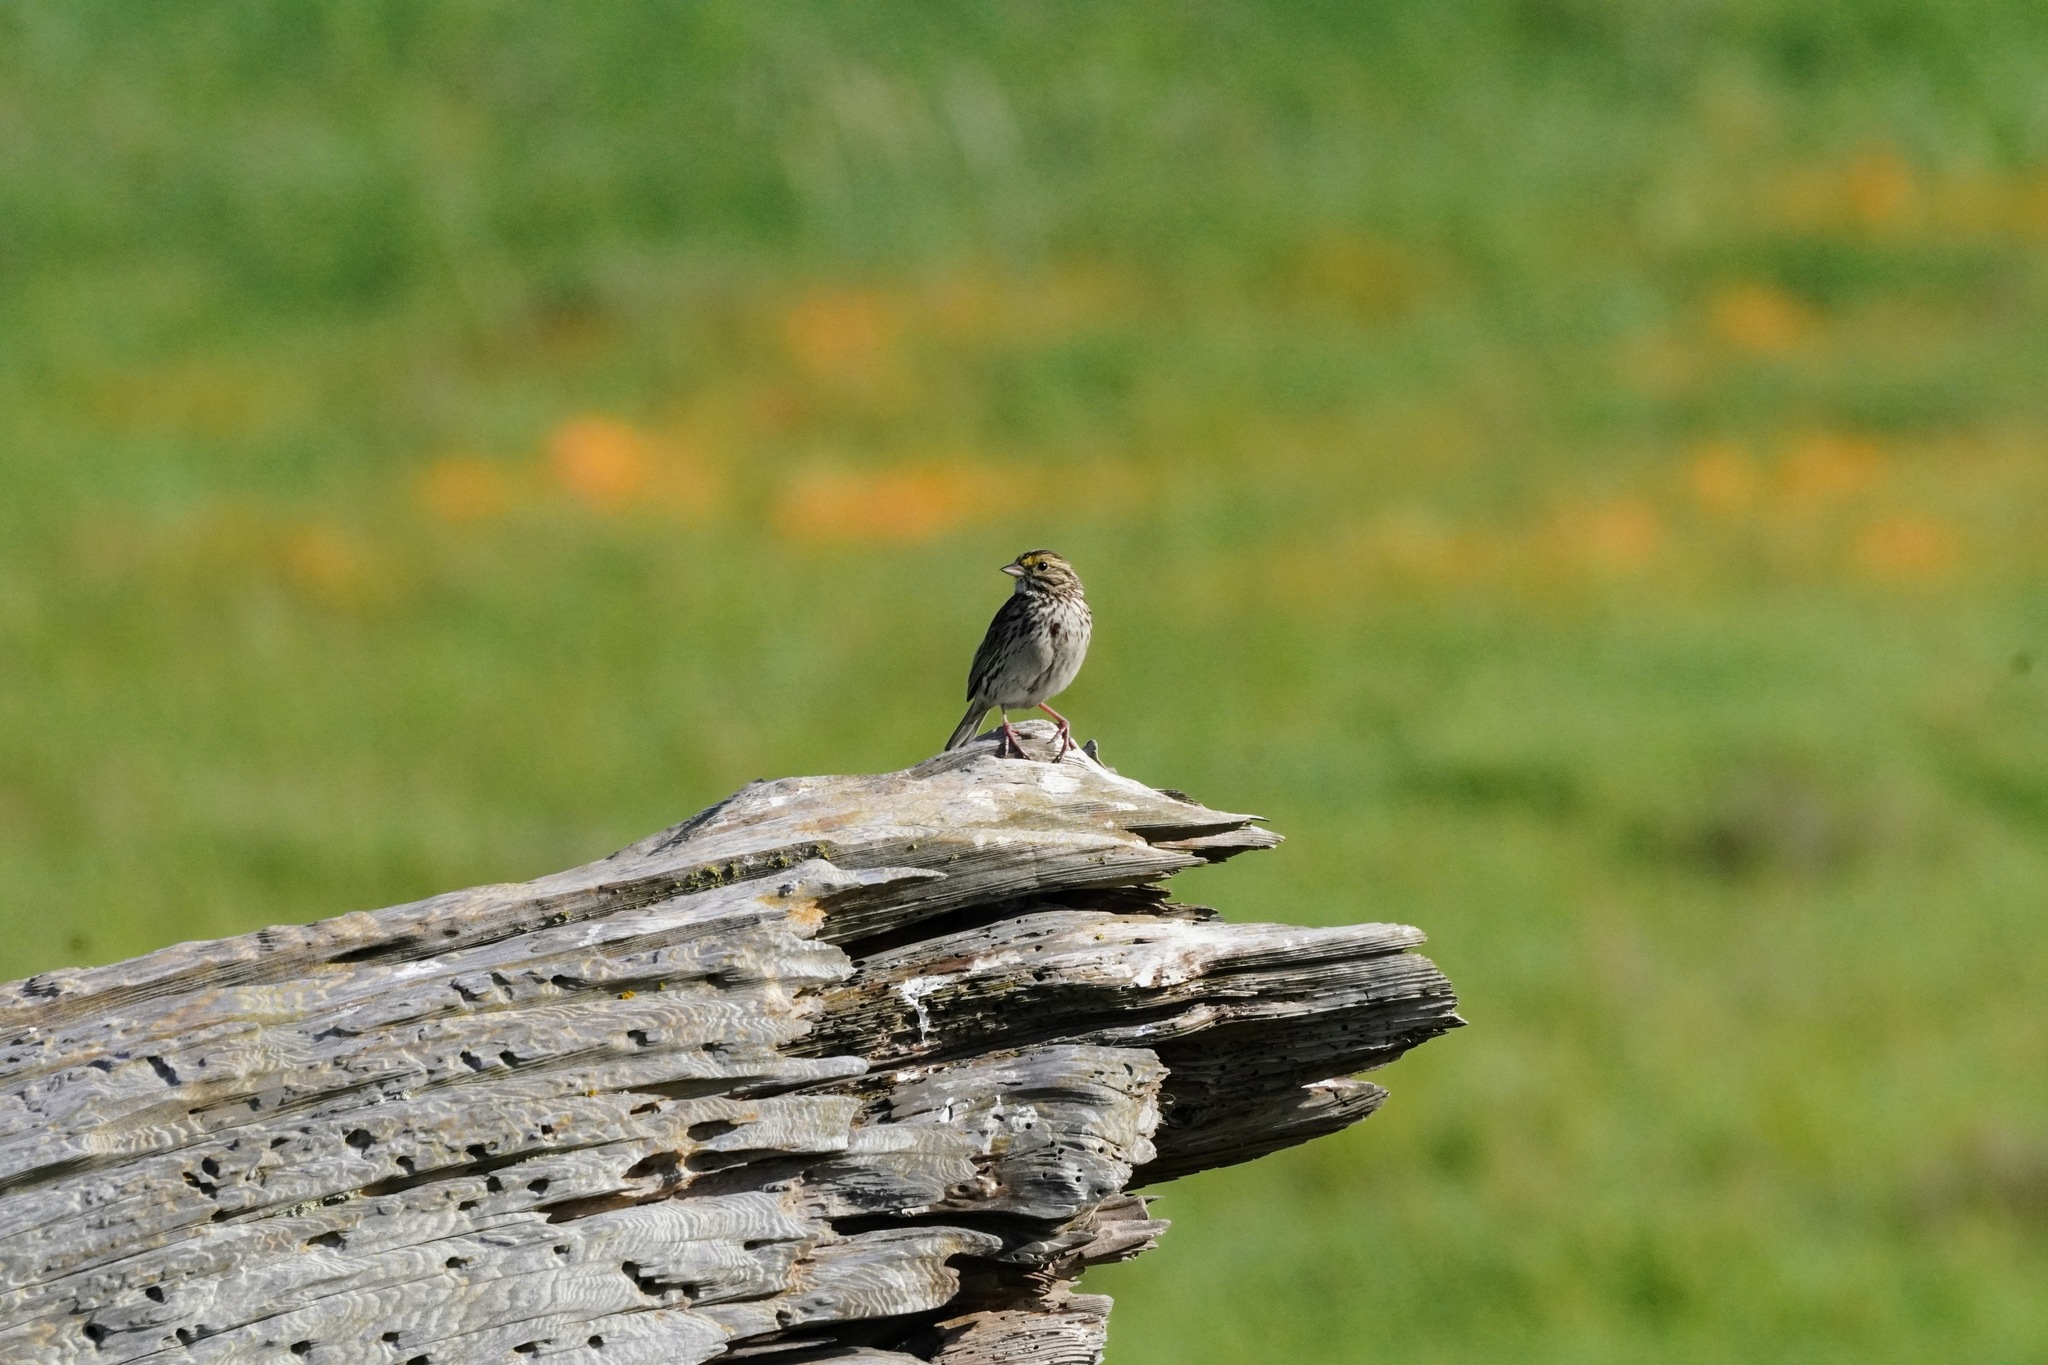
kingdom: Animalia
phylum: Chordata
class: Aves
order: Passeriformes
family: Passerellidae
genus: Passerculus
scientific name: Passerculus sandwichensis
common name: Savannah sparrow
